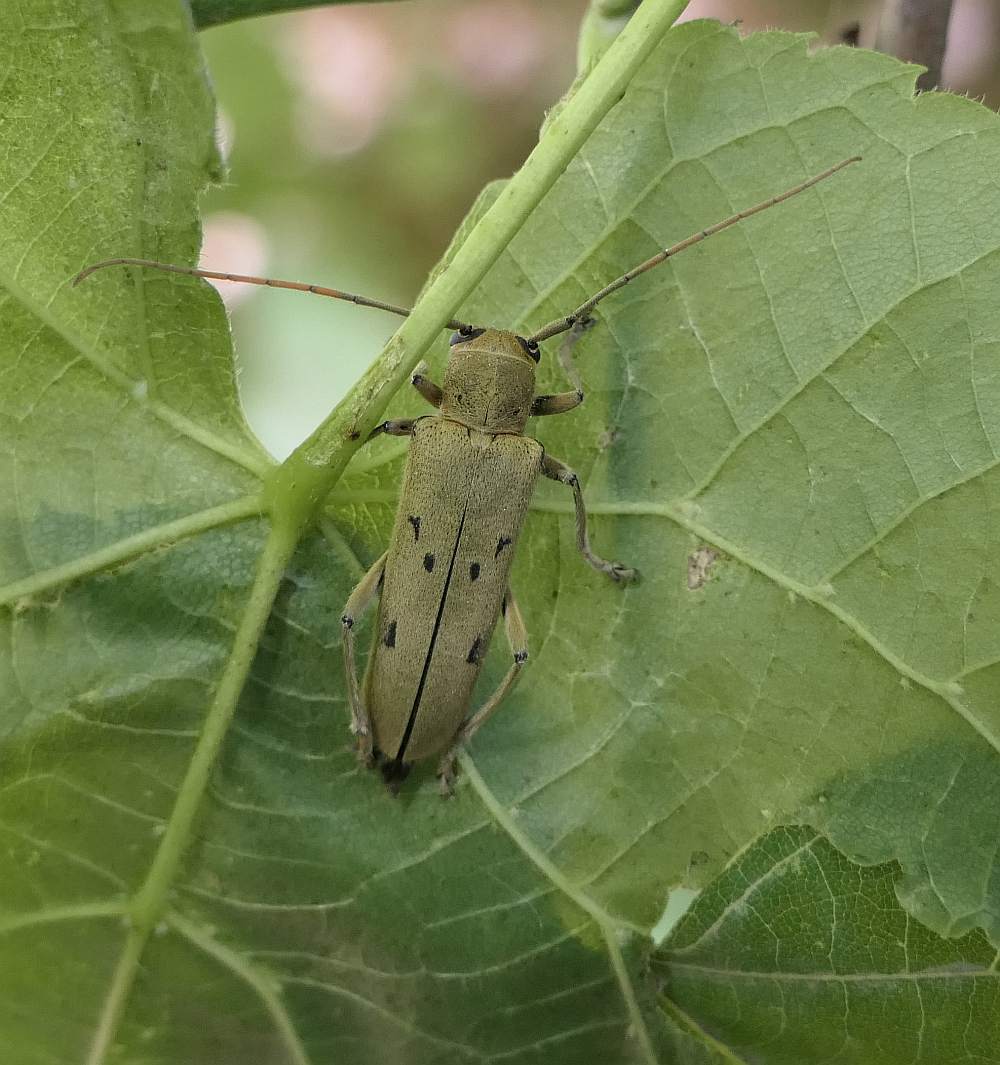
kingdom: Animalia
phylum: Arthropoda
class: Insecta
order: Coleoptera
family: Cerambycidae
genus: Saperda
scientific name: Saperda vestita
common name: Linden borer
